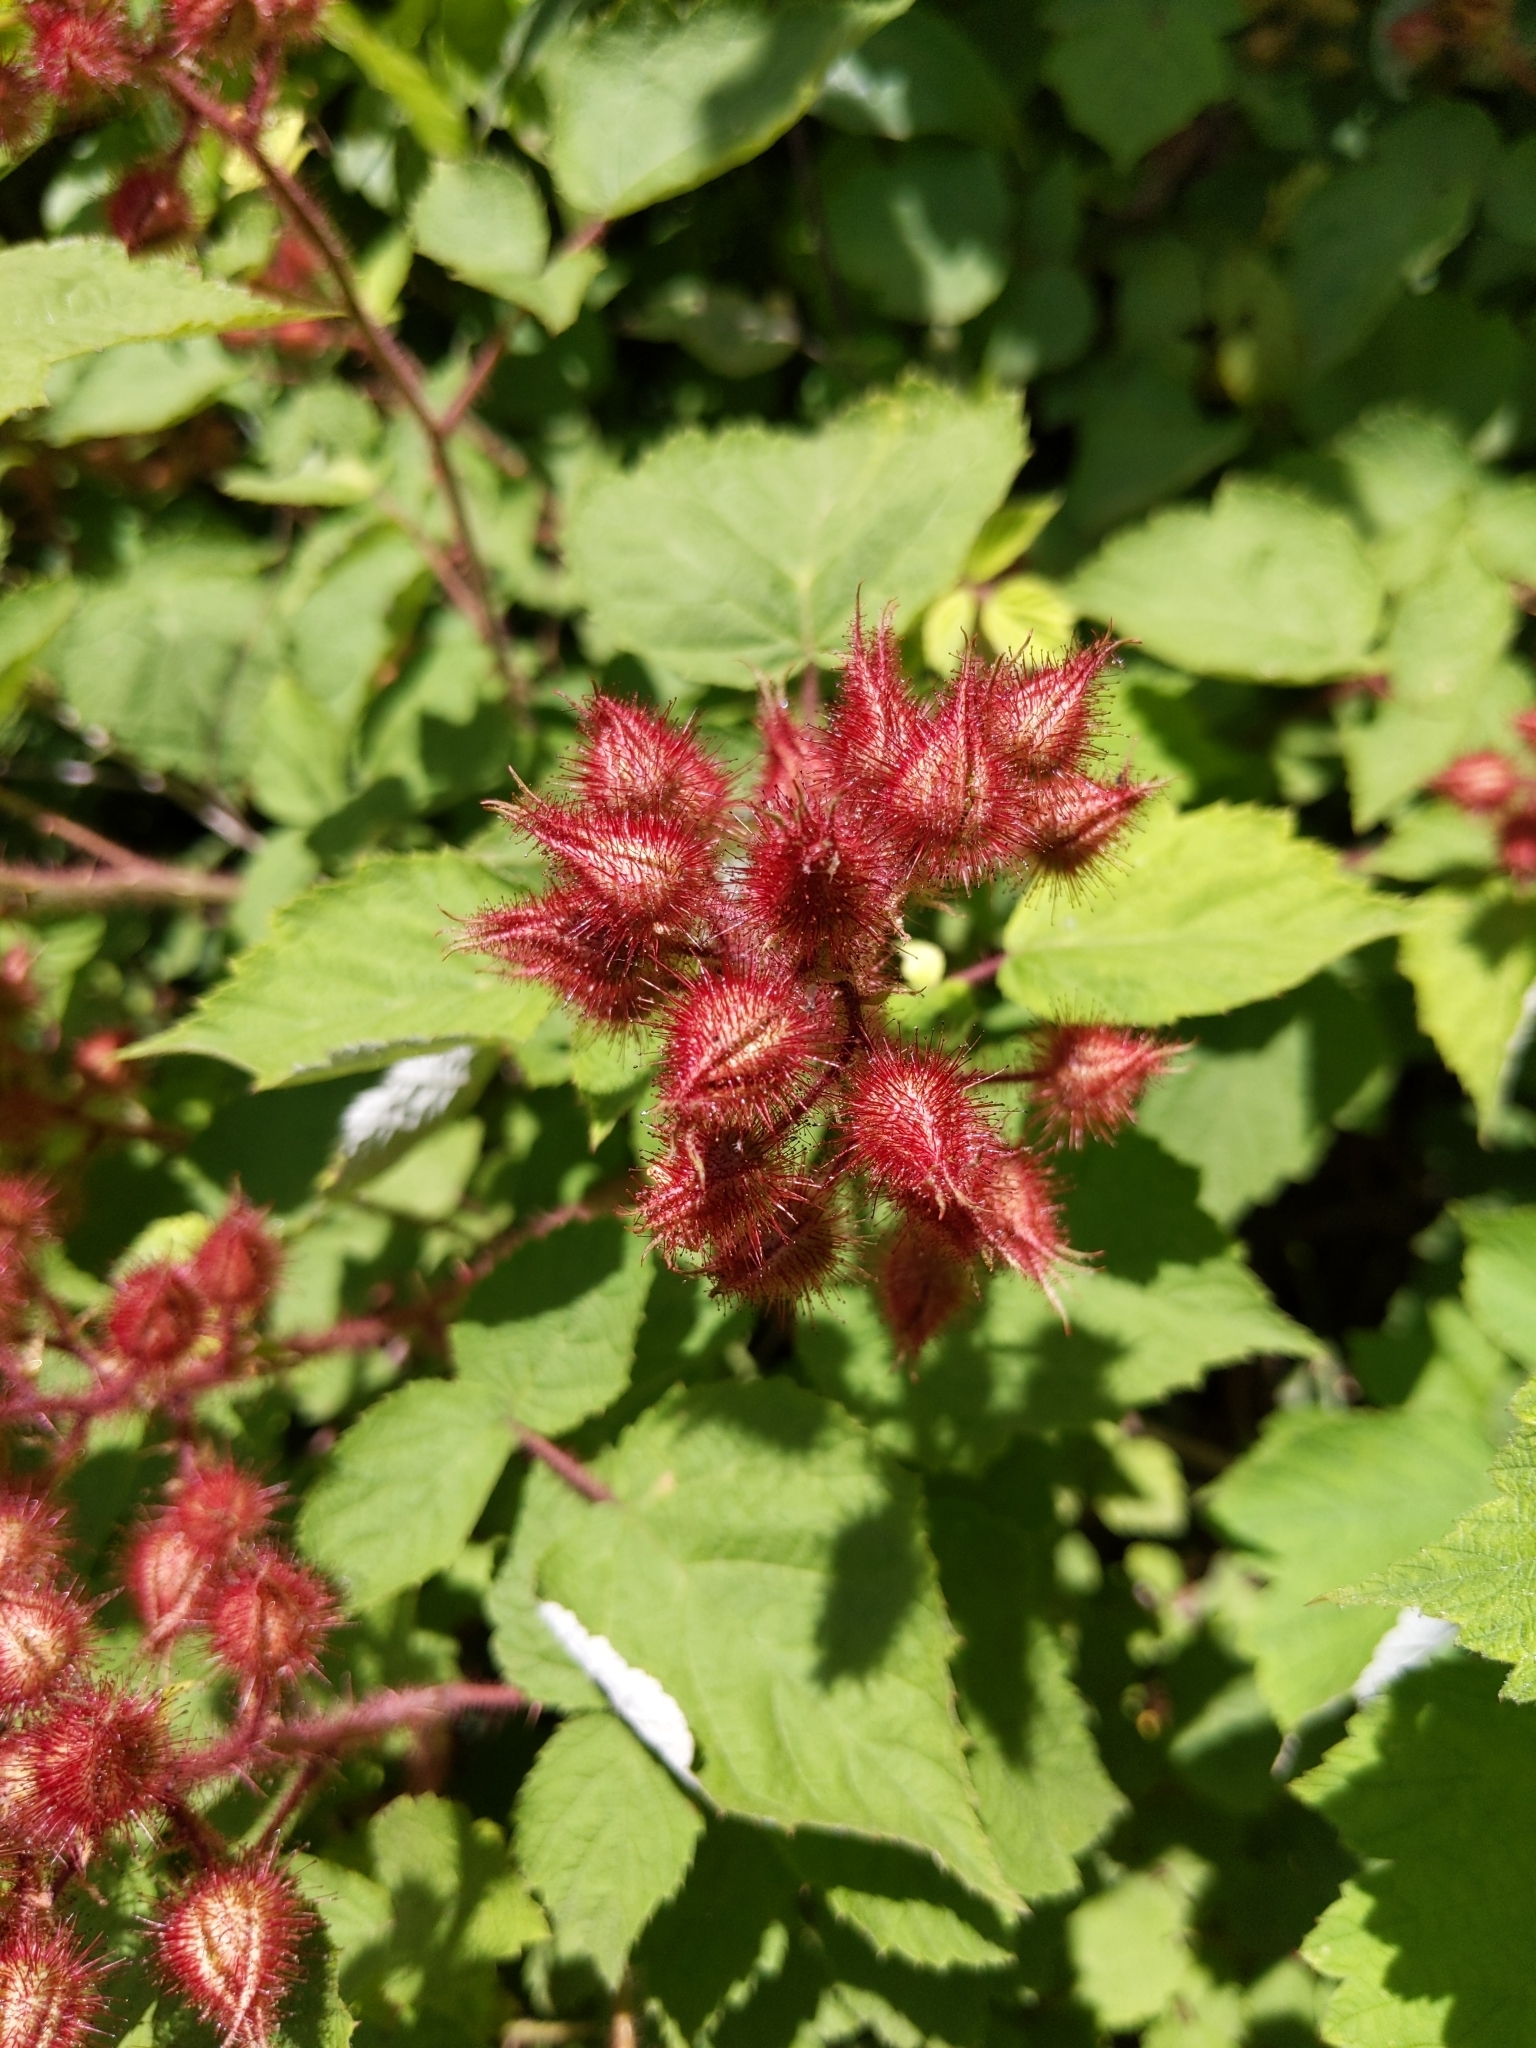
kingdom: Plantae
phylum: Tracheophyta
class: Magnoliopsida
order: Rosales
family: Rosaceae
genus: Rubus
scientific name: Rubus phoenicolasius
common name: Japanese wineberry
